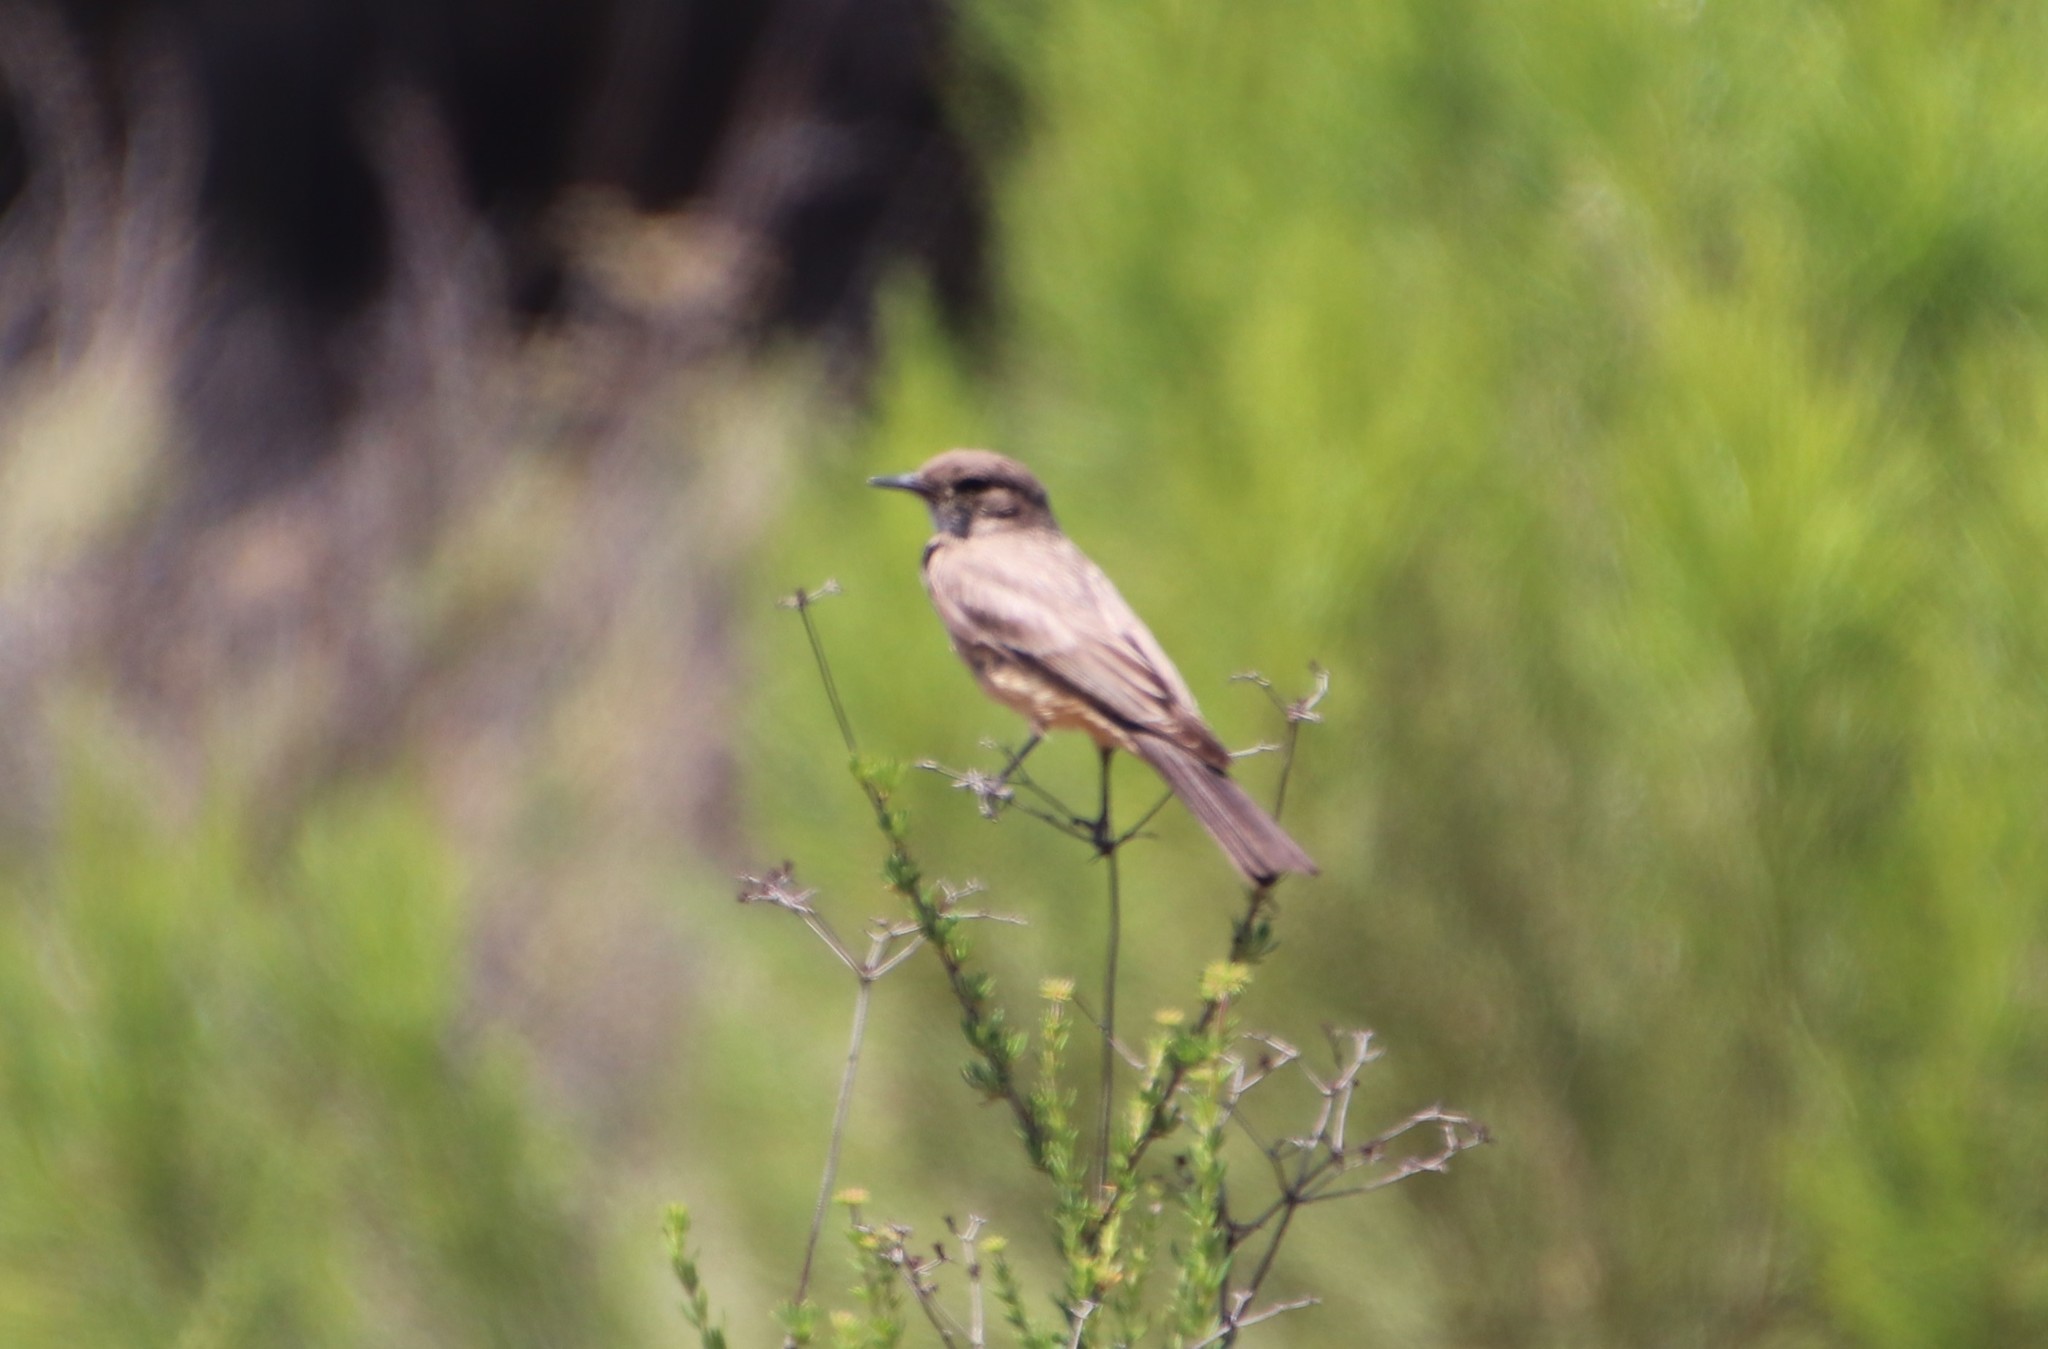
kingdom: Animalia
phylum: Chordata
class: Aves
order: Passeriformes
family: Tyrannidae
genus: Sayornis
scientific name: Sayornis saya
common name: Say's phoebe
